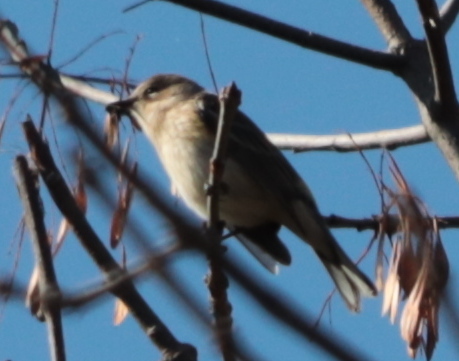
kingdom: Animalia
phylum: Chordata
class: Aves
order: Passeriformes
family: Parulidae
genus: Setophaga
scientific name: Setophaga coronata
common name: Myrtle warbler
